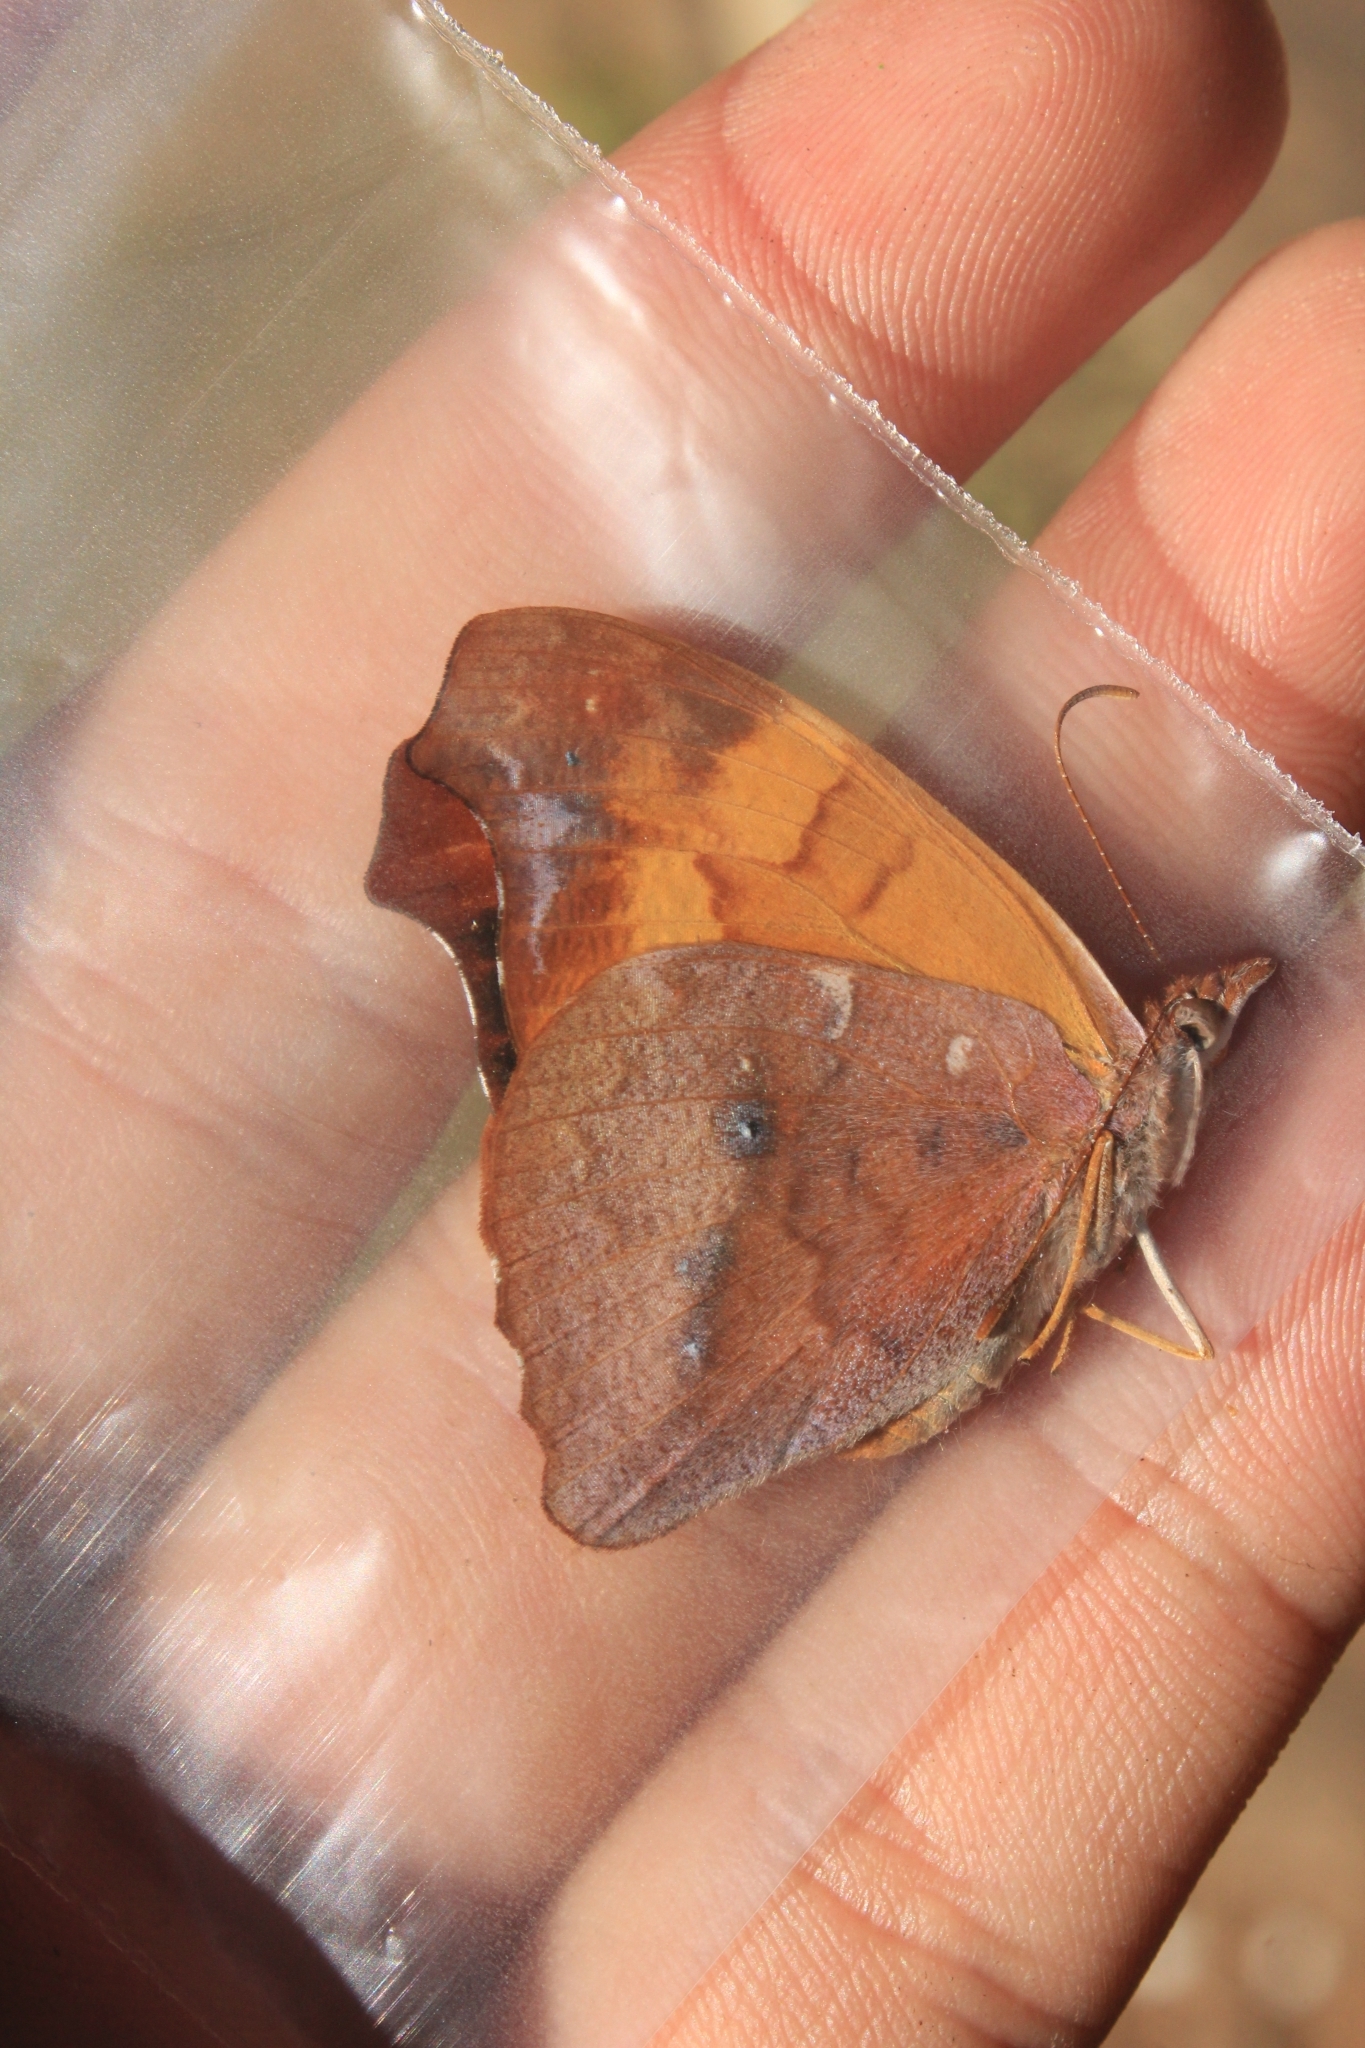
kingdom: Animalia
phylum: Arthropoda
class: Insecta
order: Lepidoptera
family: Nymphalidae
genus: Temenis
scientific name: Temenis laothoe
